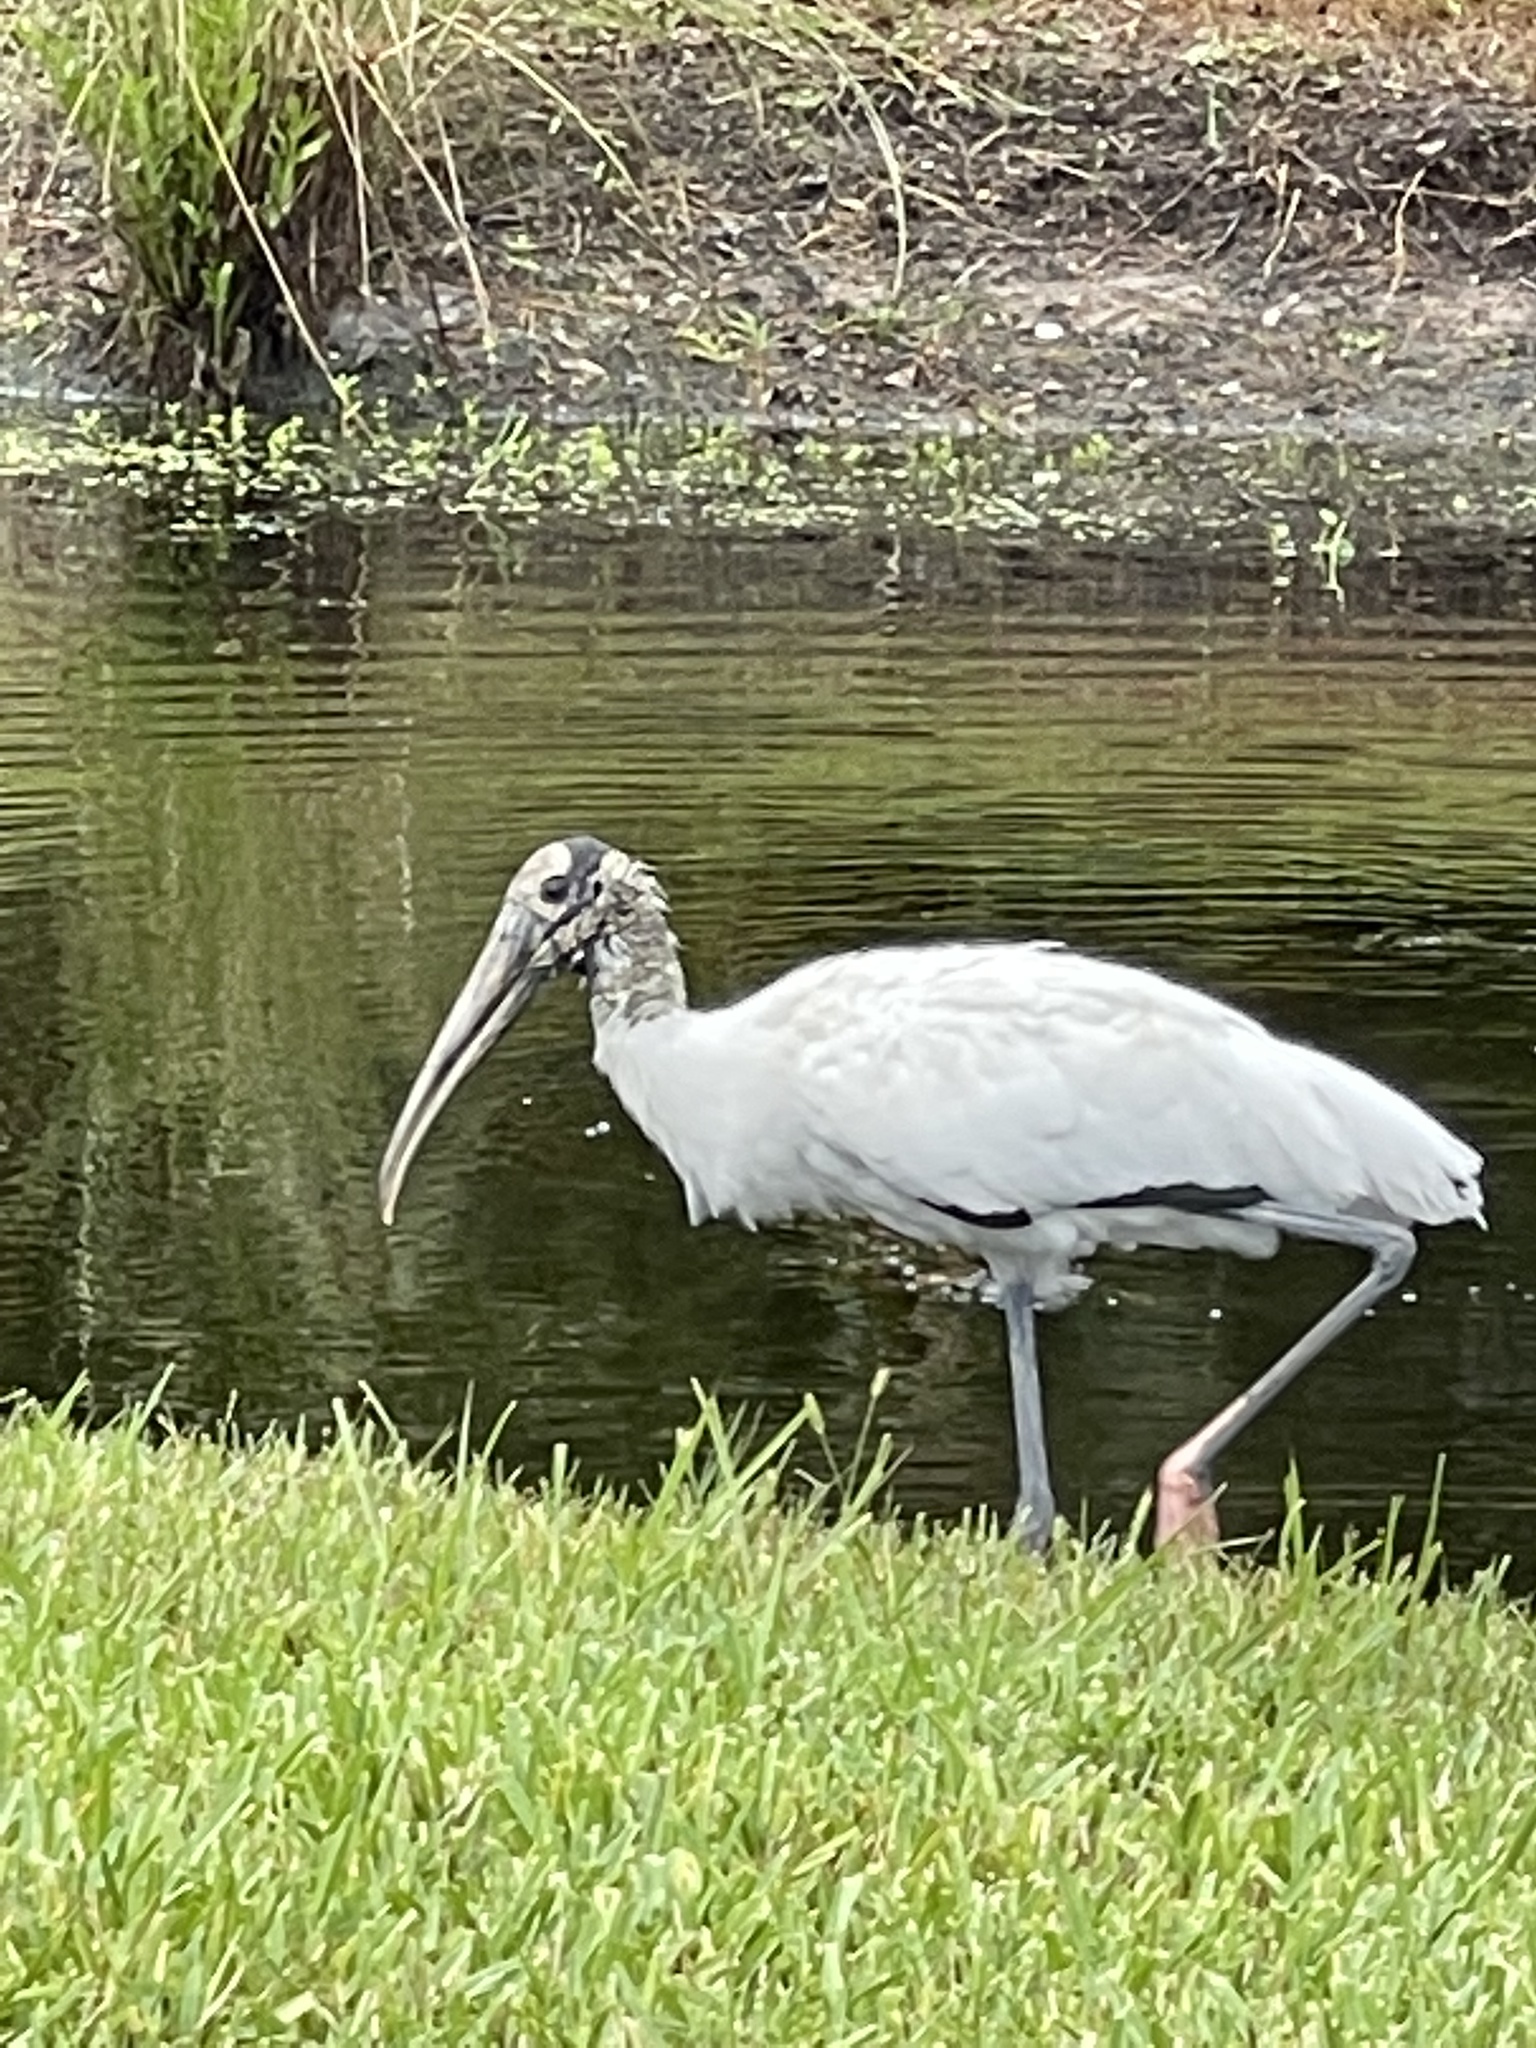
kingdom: Animalia
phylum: Chordata
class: Aves
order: Ciconiiformes
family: Ciconiidae
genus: Mycteria
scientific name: Mycteria americana
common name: Wood stork
